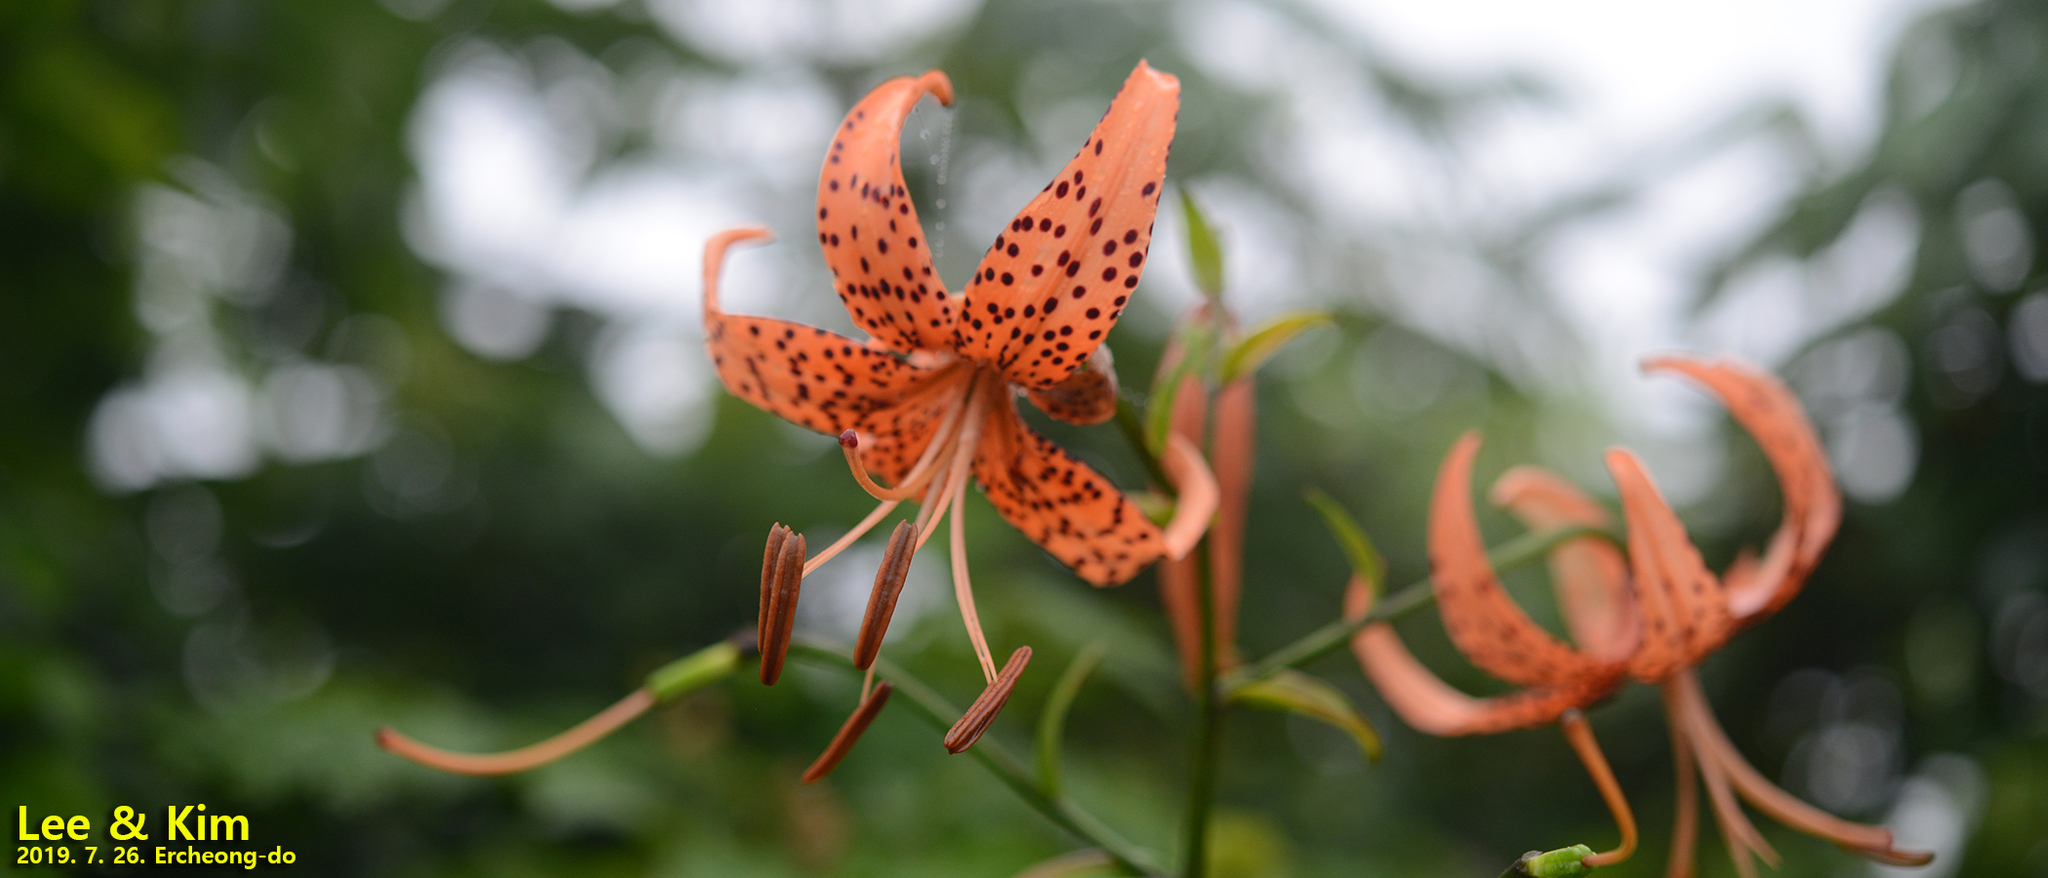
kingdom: Plantae
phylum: Tracheophyta
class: Liliopsida
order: Liliales
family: Liliaceae
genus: Lilium
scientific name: Lilium lancifolium
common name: Tiger lily
